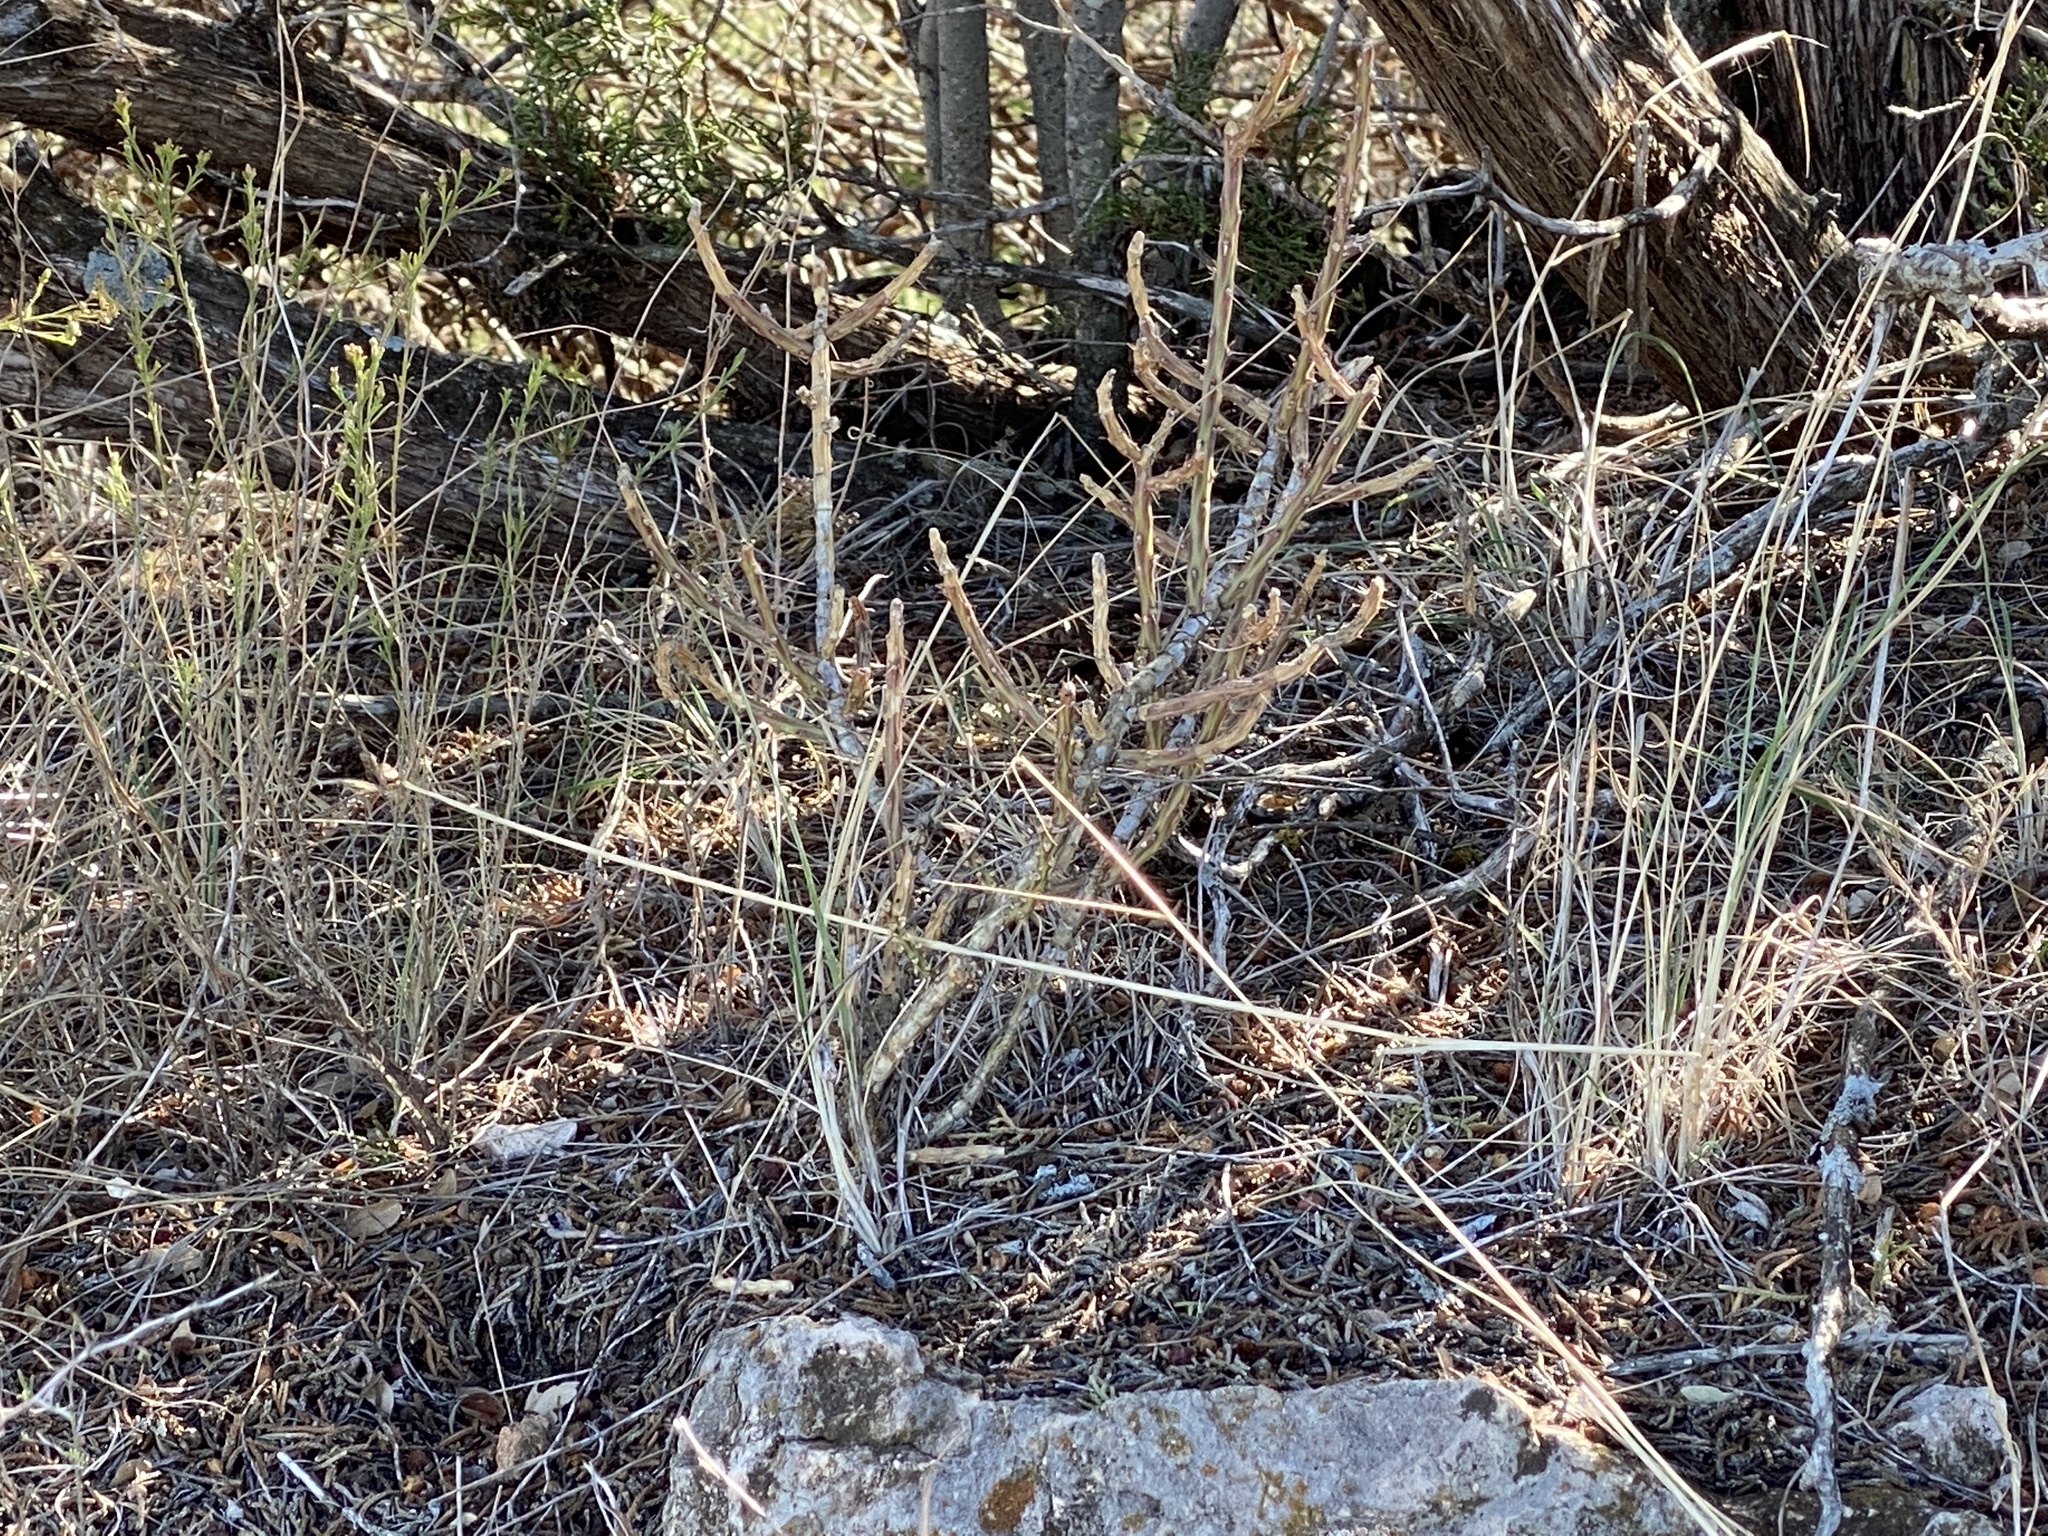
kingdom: Plantae
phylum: Tracheophyta
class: Magnoliopsida
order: Caryophyllales
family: Cactaceae
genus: Cylindropuntia
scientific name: Cylindropuntia leptocaulis
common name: Christmas cactus
